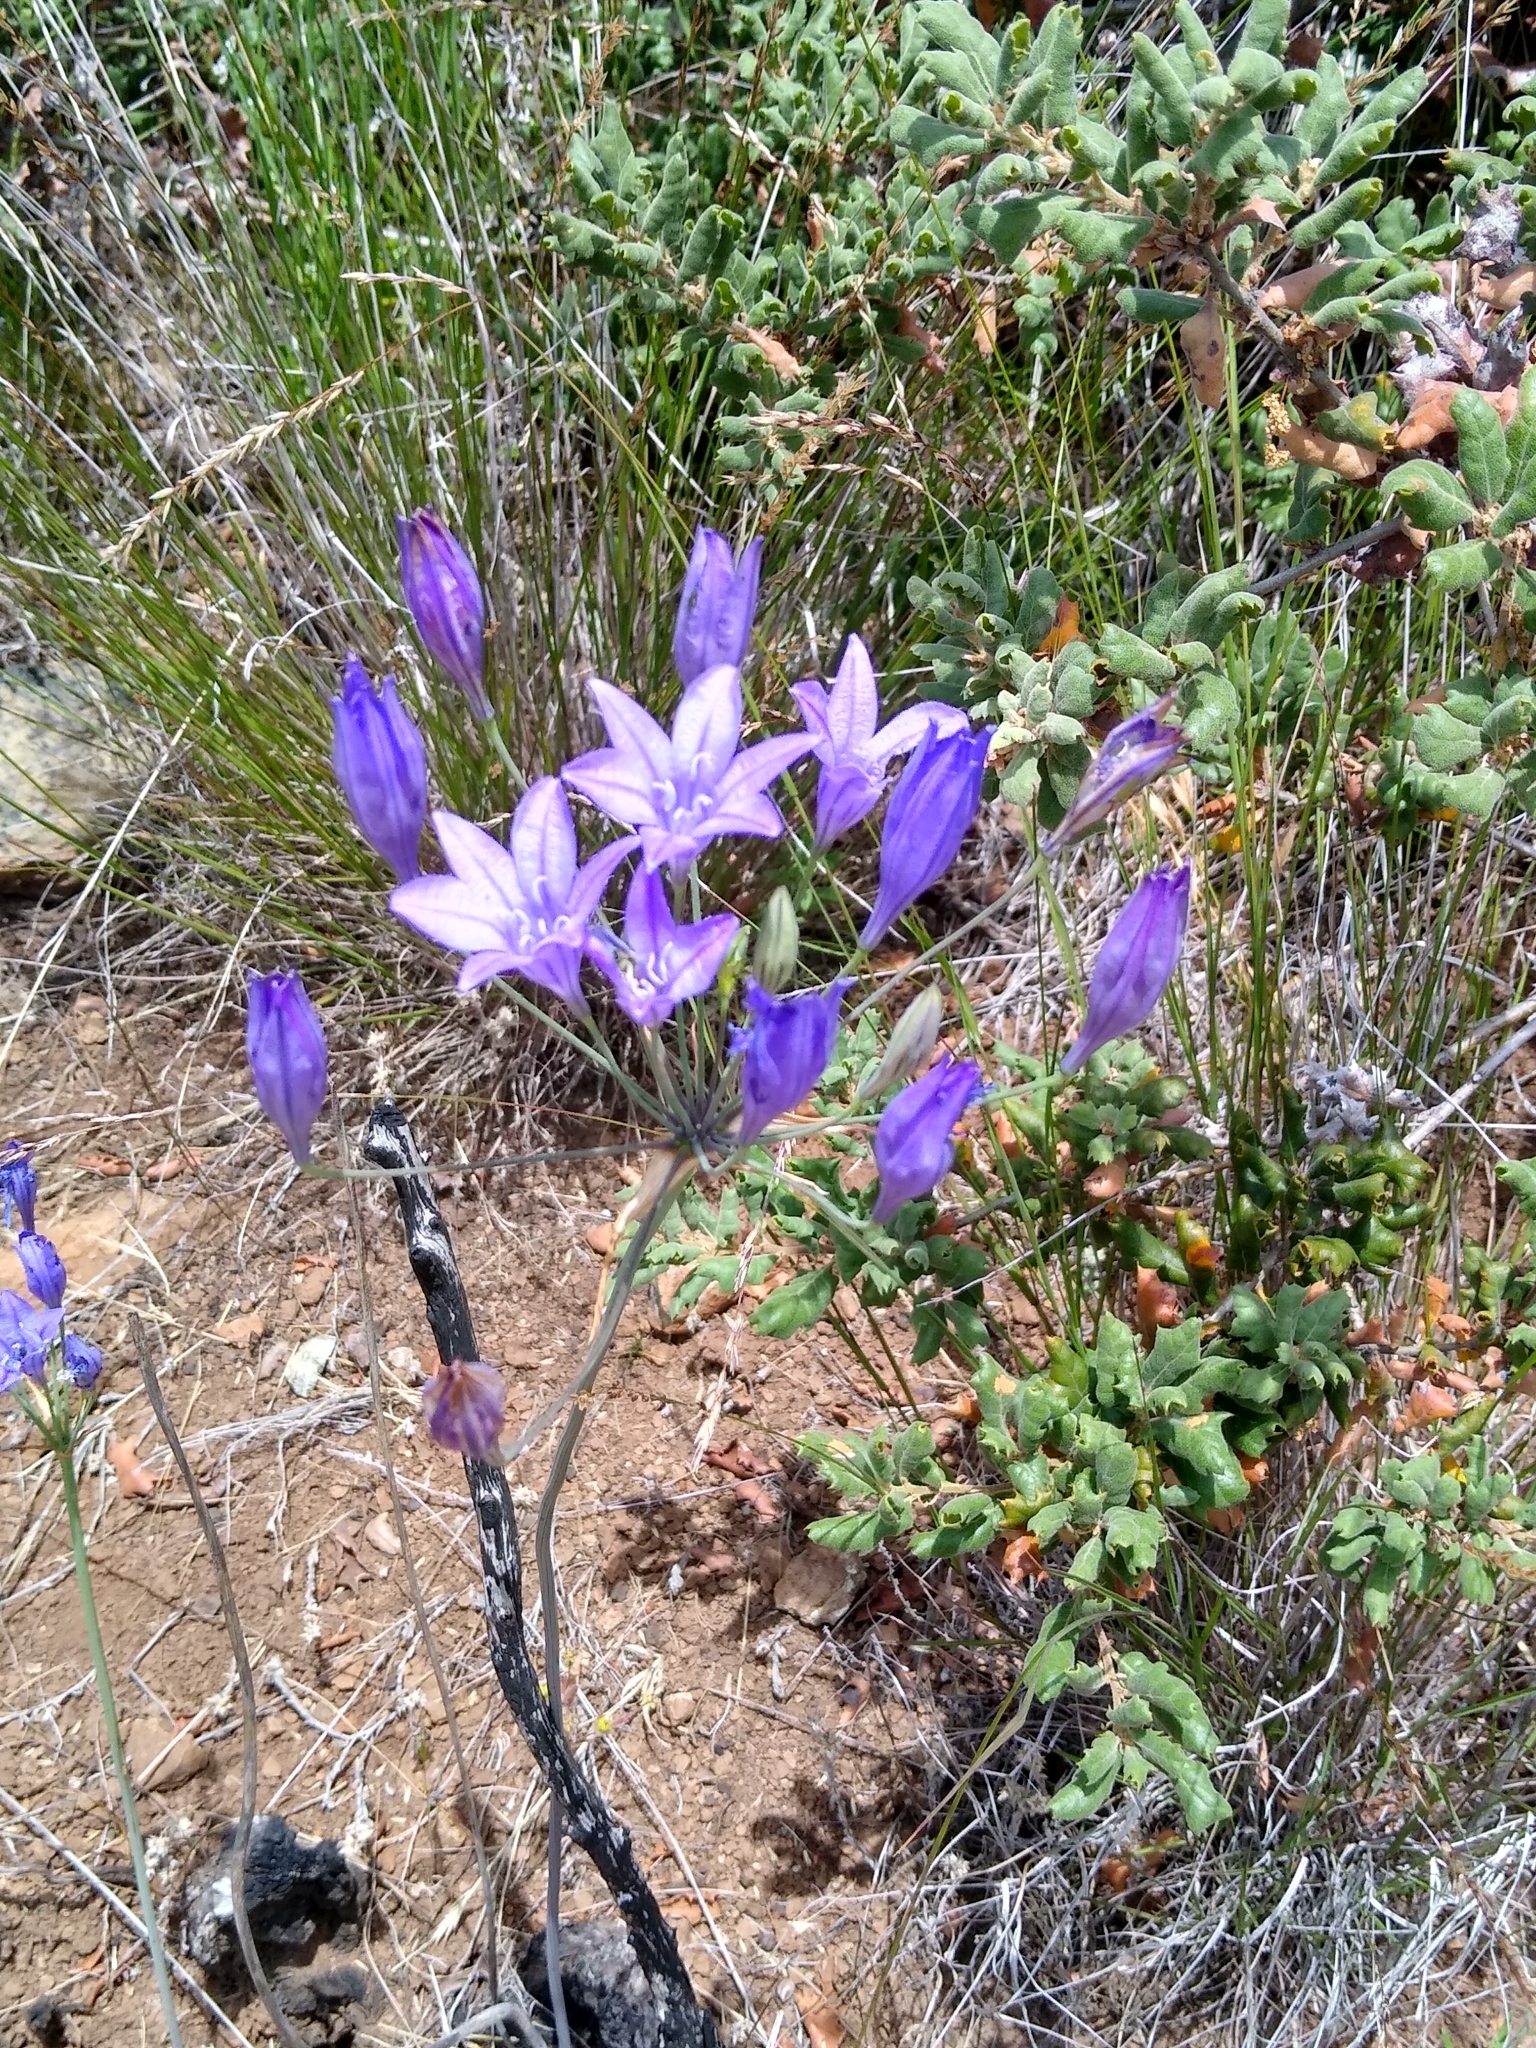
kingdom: Plantae
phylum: Tracheophyta
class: Liliopsida
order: Asparagales
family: Asparagaceae
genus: Triteleia
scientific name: Triteleia laxa
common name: Triplet-lily
